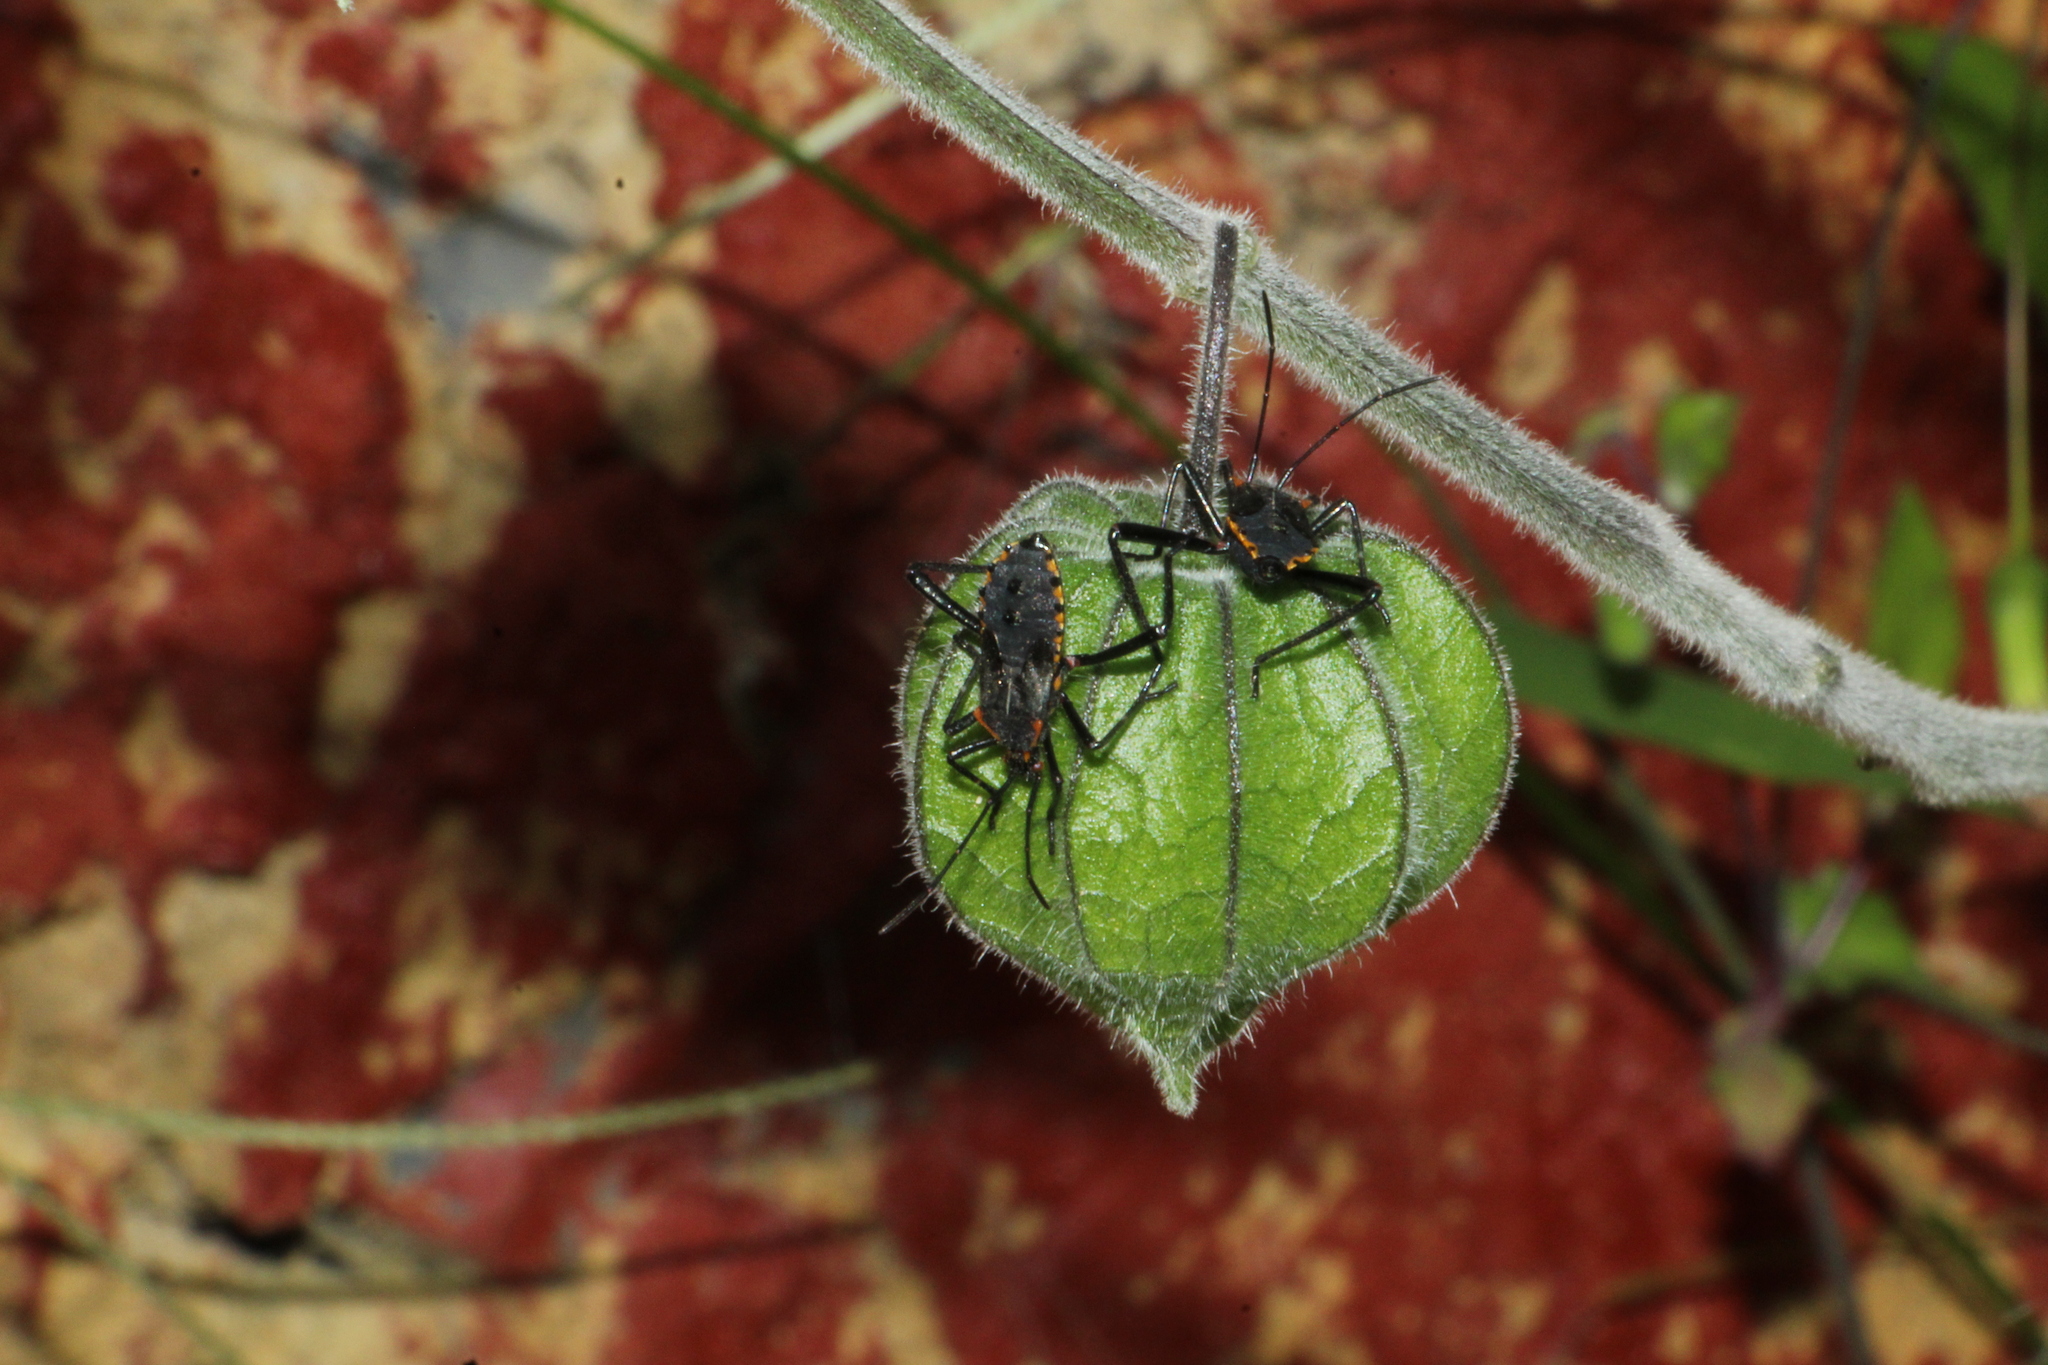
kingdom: Animalia
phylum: Arthropoda
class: Insecta
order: Hemiptera
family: Coreidae
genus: Phthiacnemia
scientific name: Phthiacnemia picta
